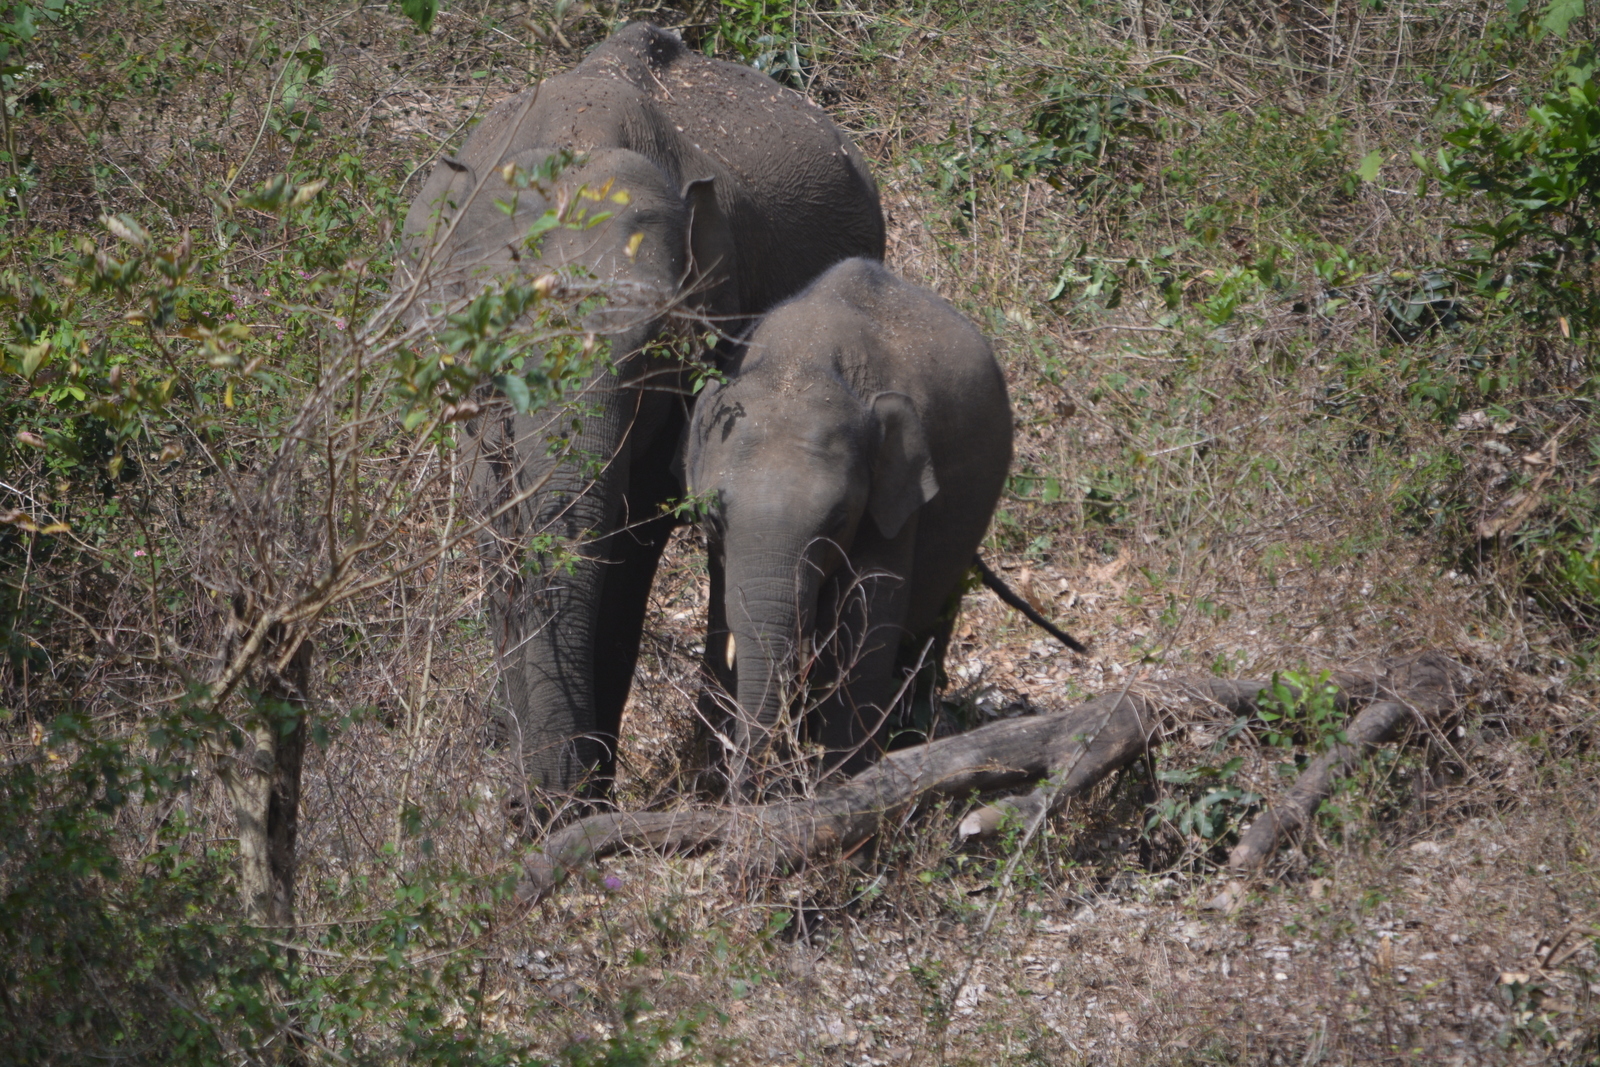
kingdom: Animalia
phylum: Chordata
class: Mammalia
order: Proboscidea
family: Elephantidae
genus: Elephas
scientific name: Elephas maximus
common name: Asian elephant
